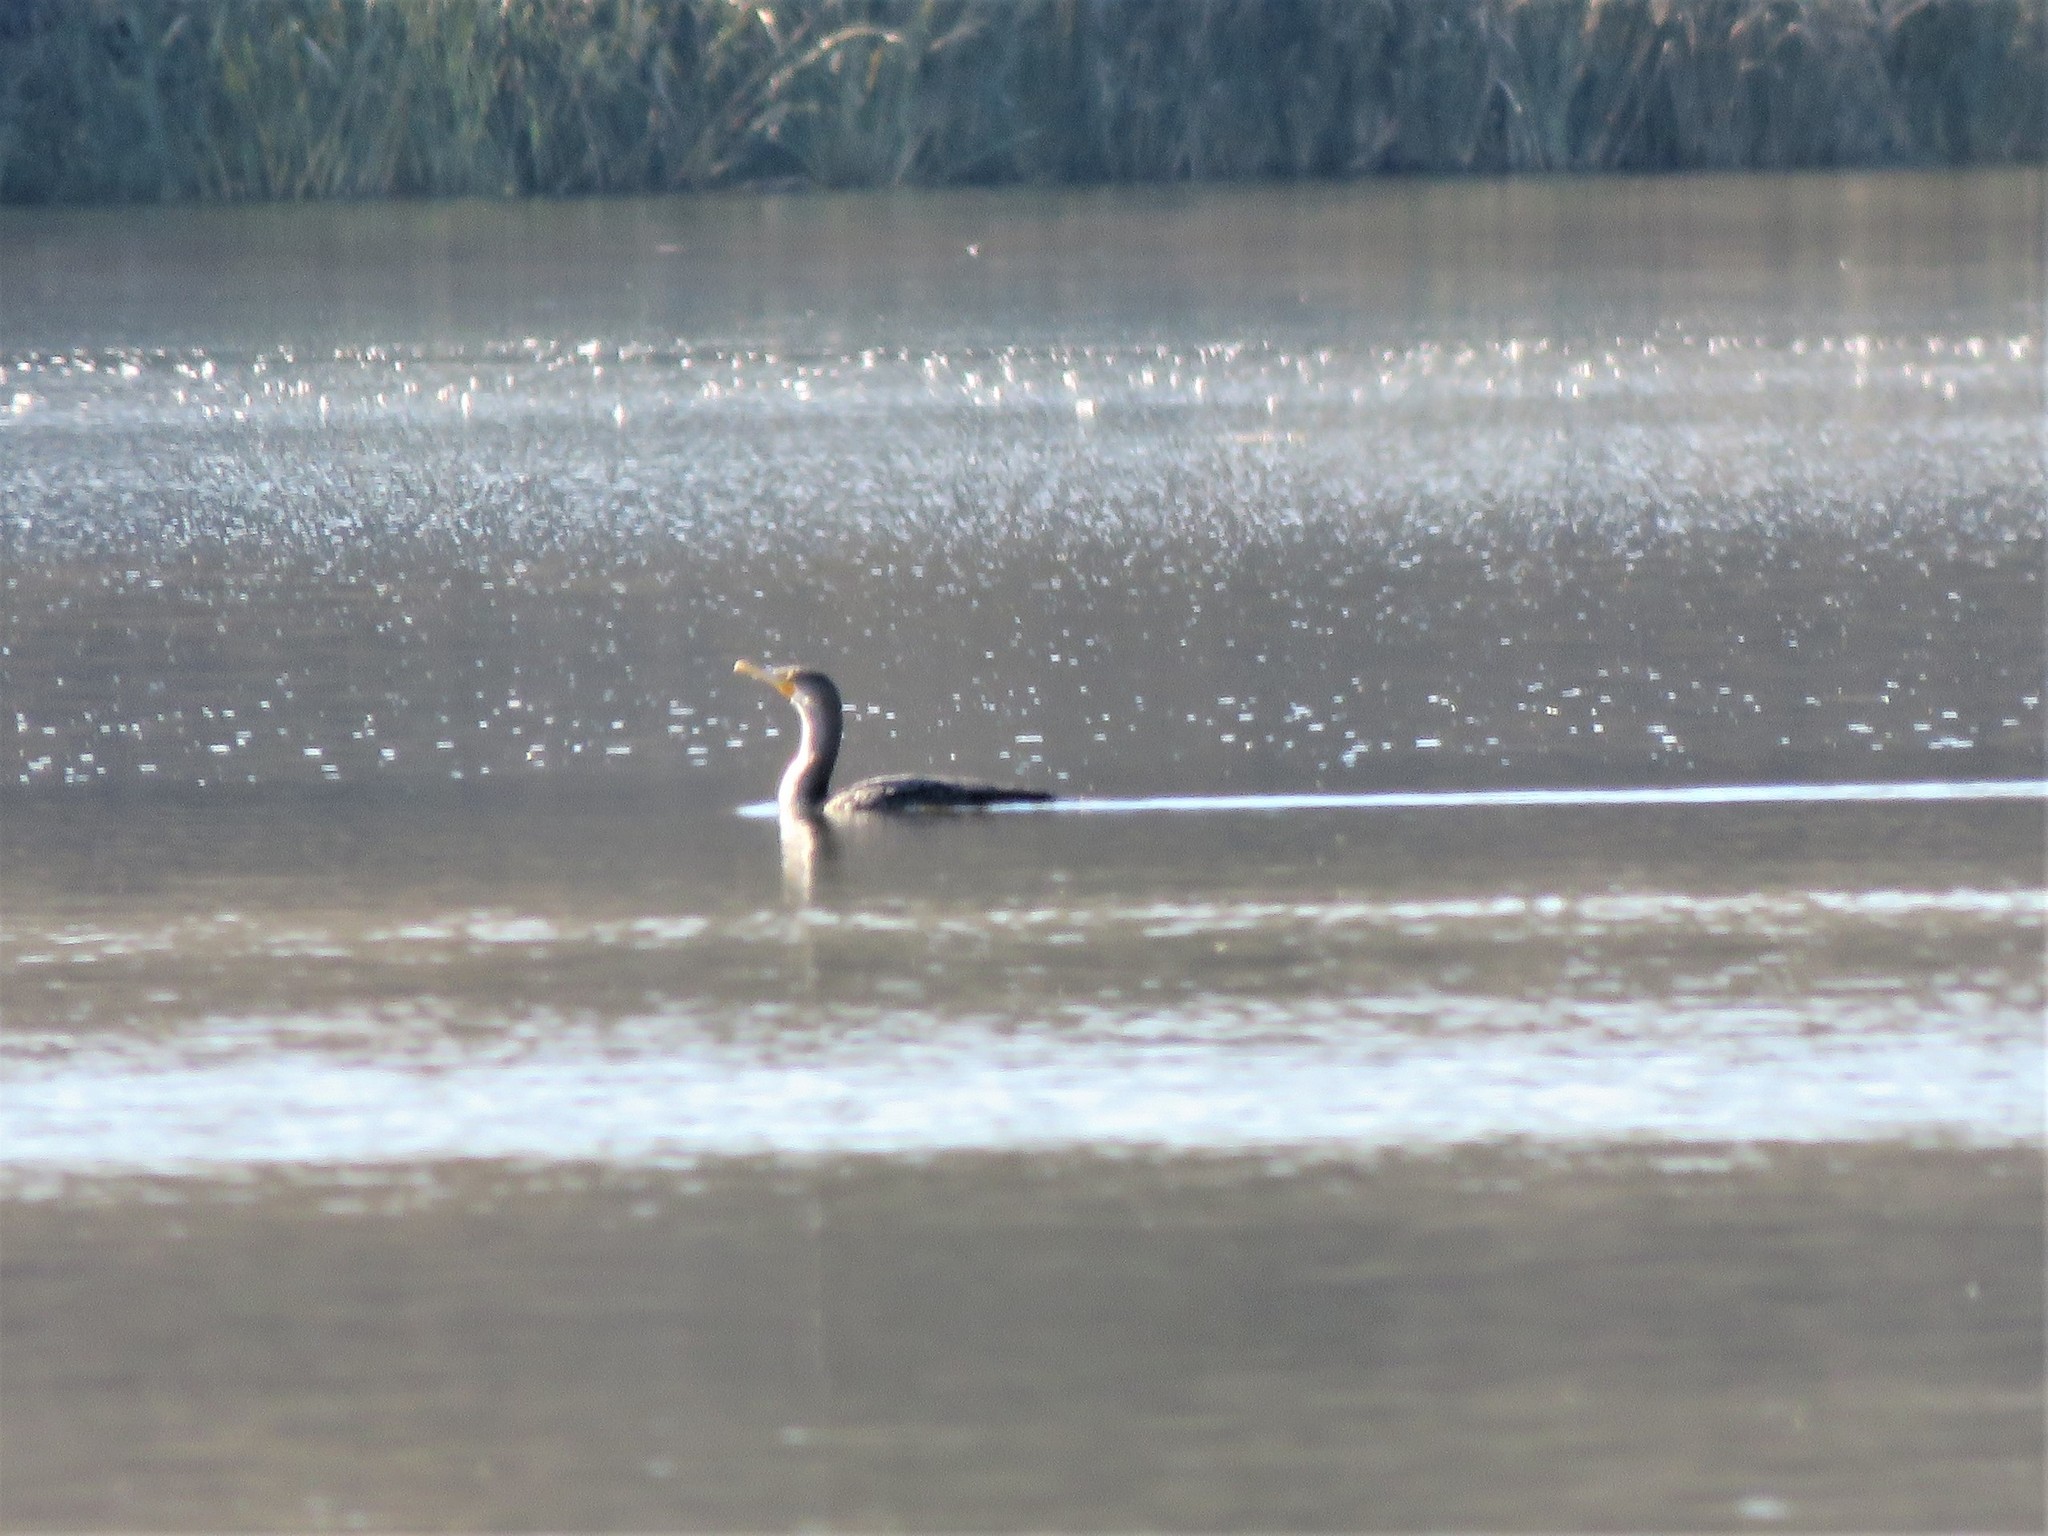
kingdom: Animalia
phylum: Chordata
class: Aves
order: Suliformes
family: Phalacrocoracidae
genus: Phalacrocorax
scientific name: Phalacrocorax auritus
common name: Double-crested cormorant
